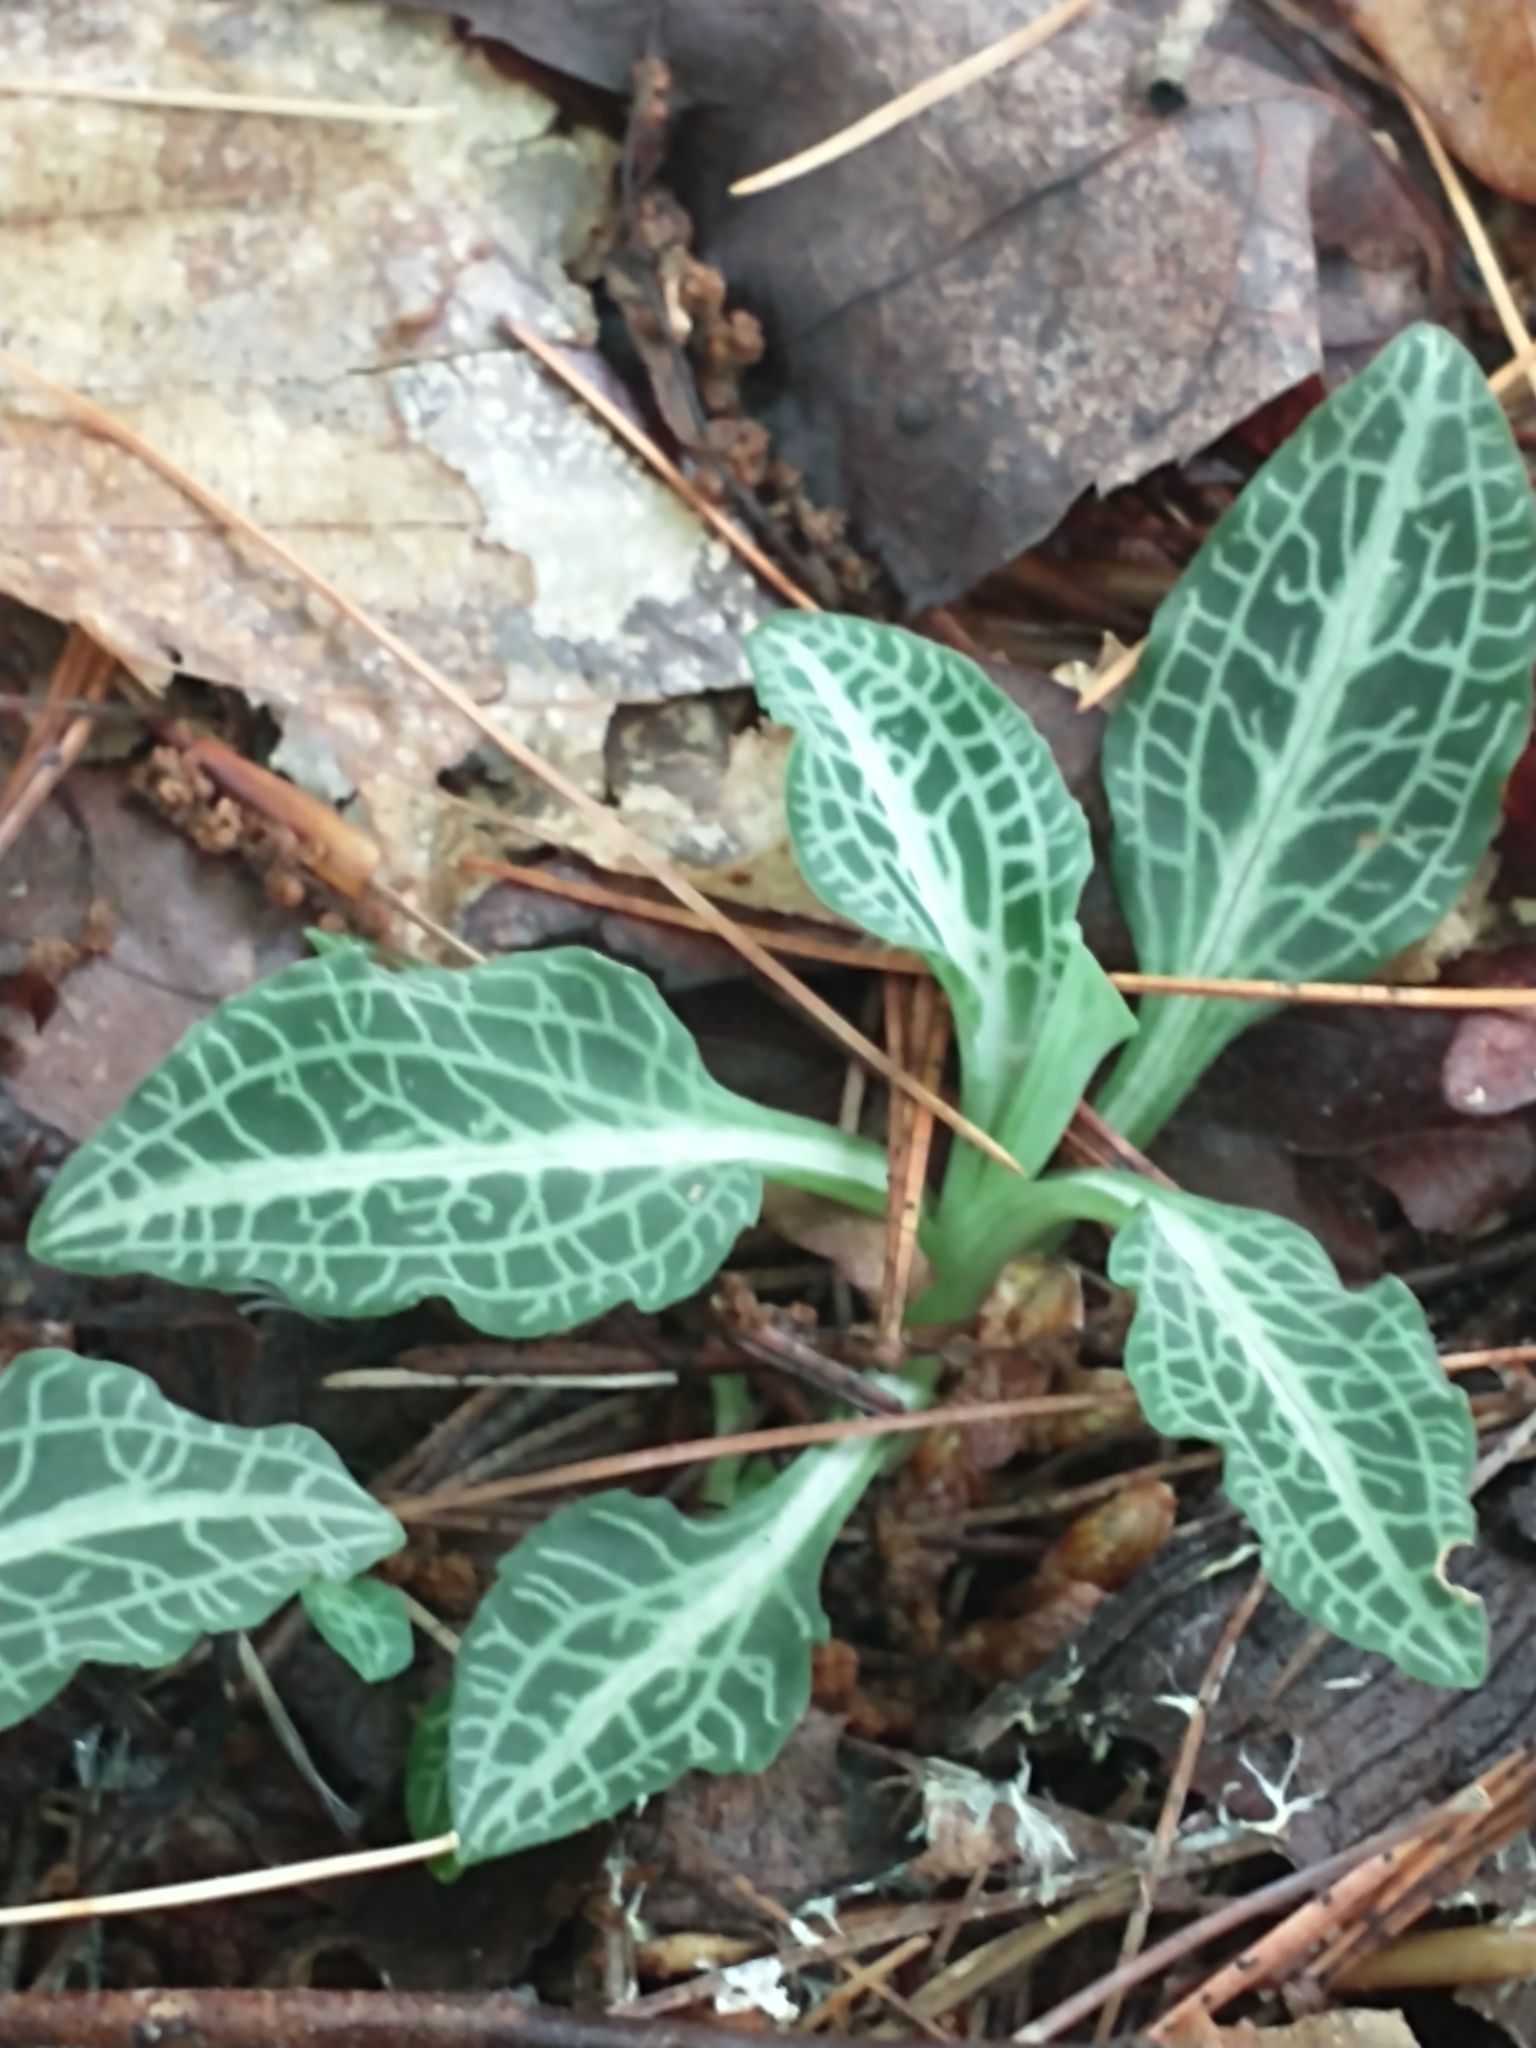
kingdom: Plantae
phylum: Tracheophyta
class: Liliopsida
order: Asparagales
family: Orchidaceae
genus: Goodyera
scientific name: Goodyera pubescens
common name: Downy rattlesnake-plantain
